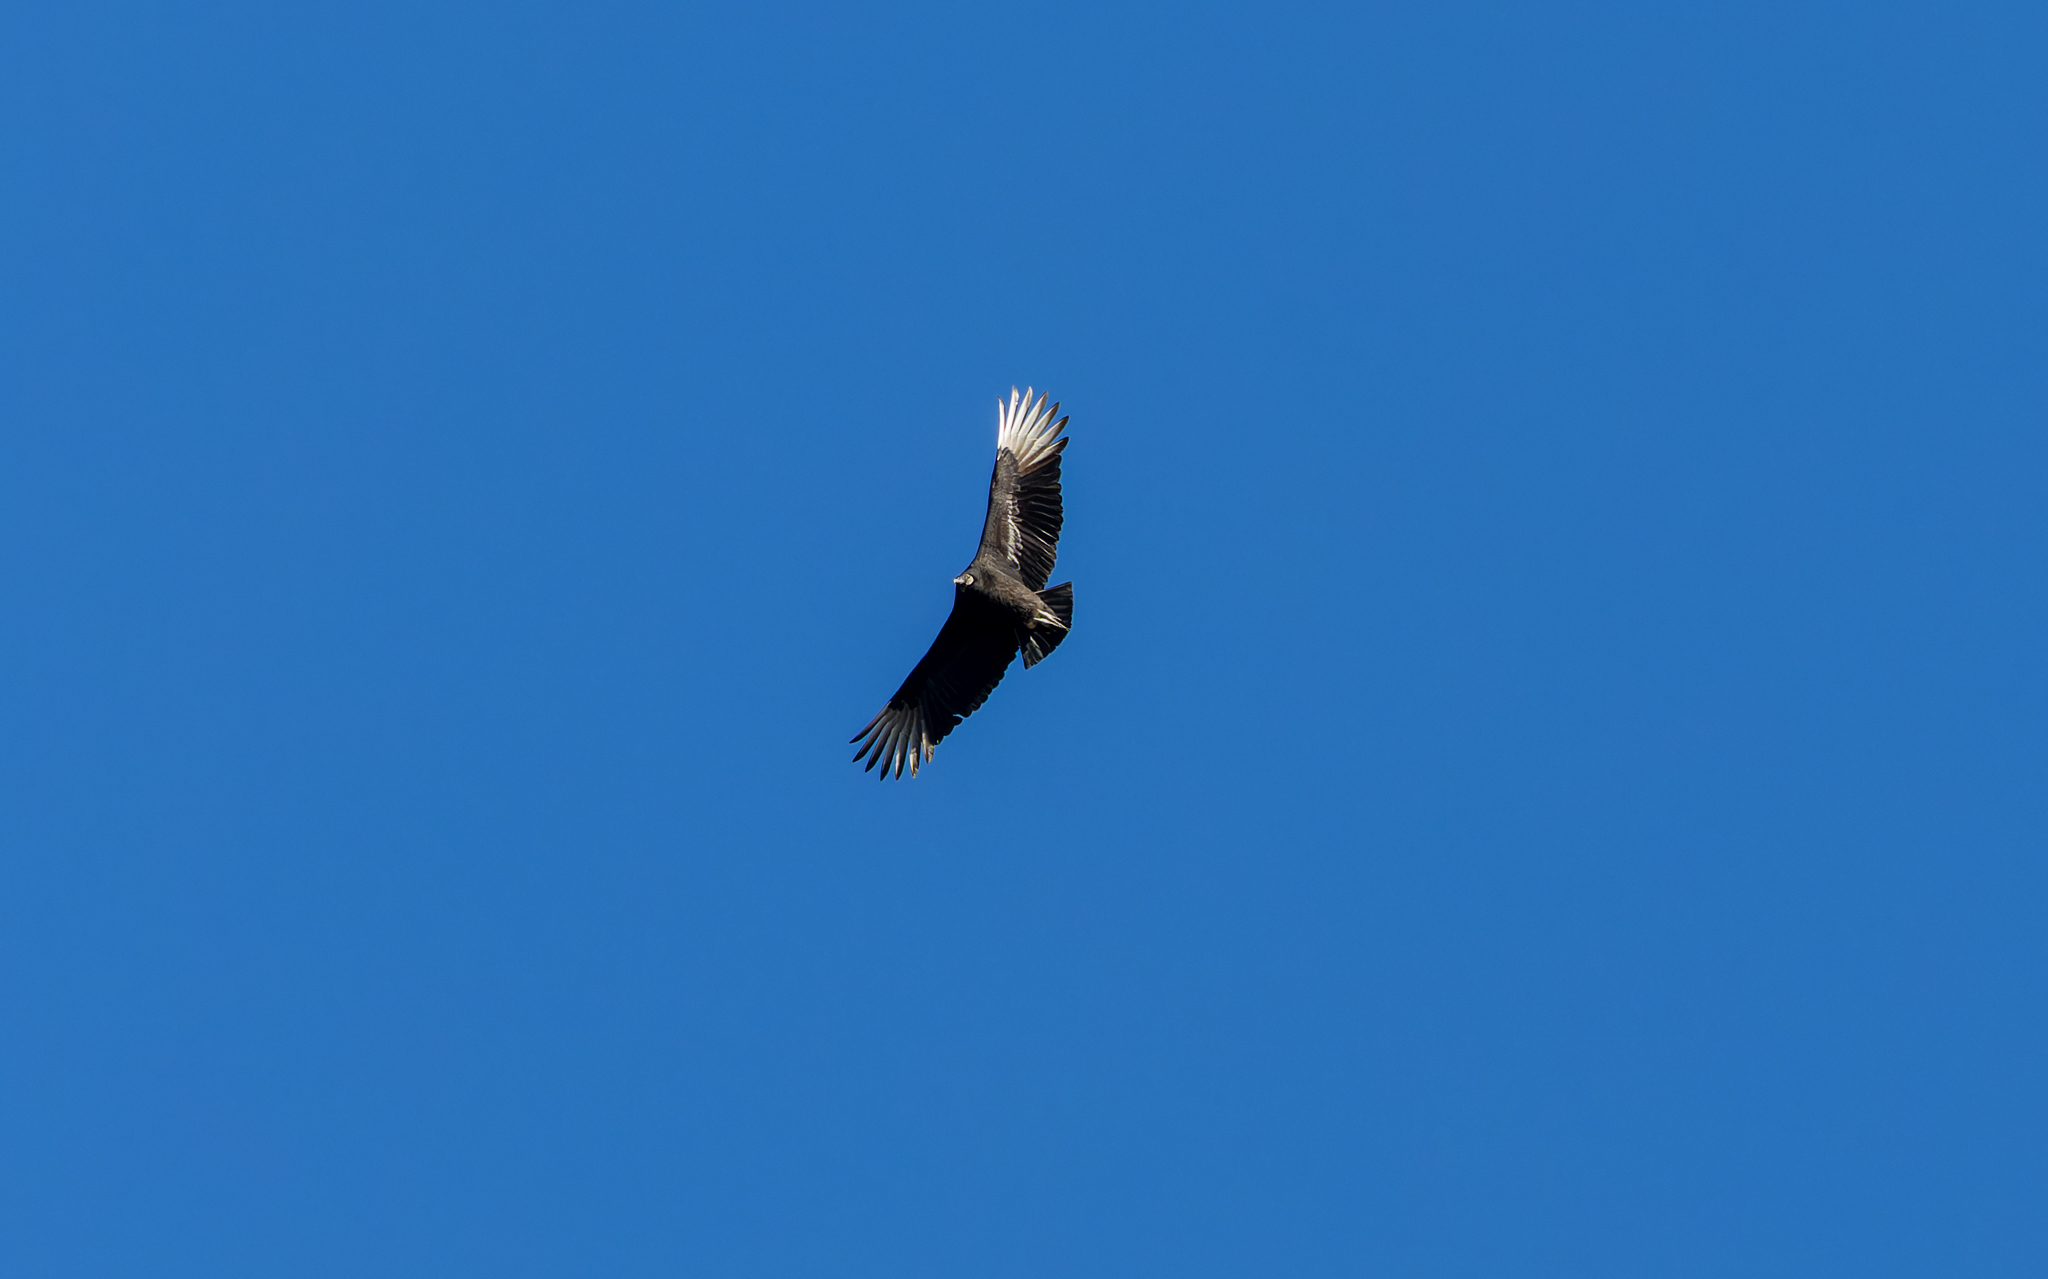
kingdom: Animalia
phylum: Chordata
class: Aves
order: Accipitriformes
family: Cathartidae
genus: Coragyps
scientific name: Coragyps atratus
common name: Black vulture
